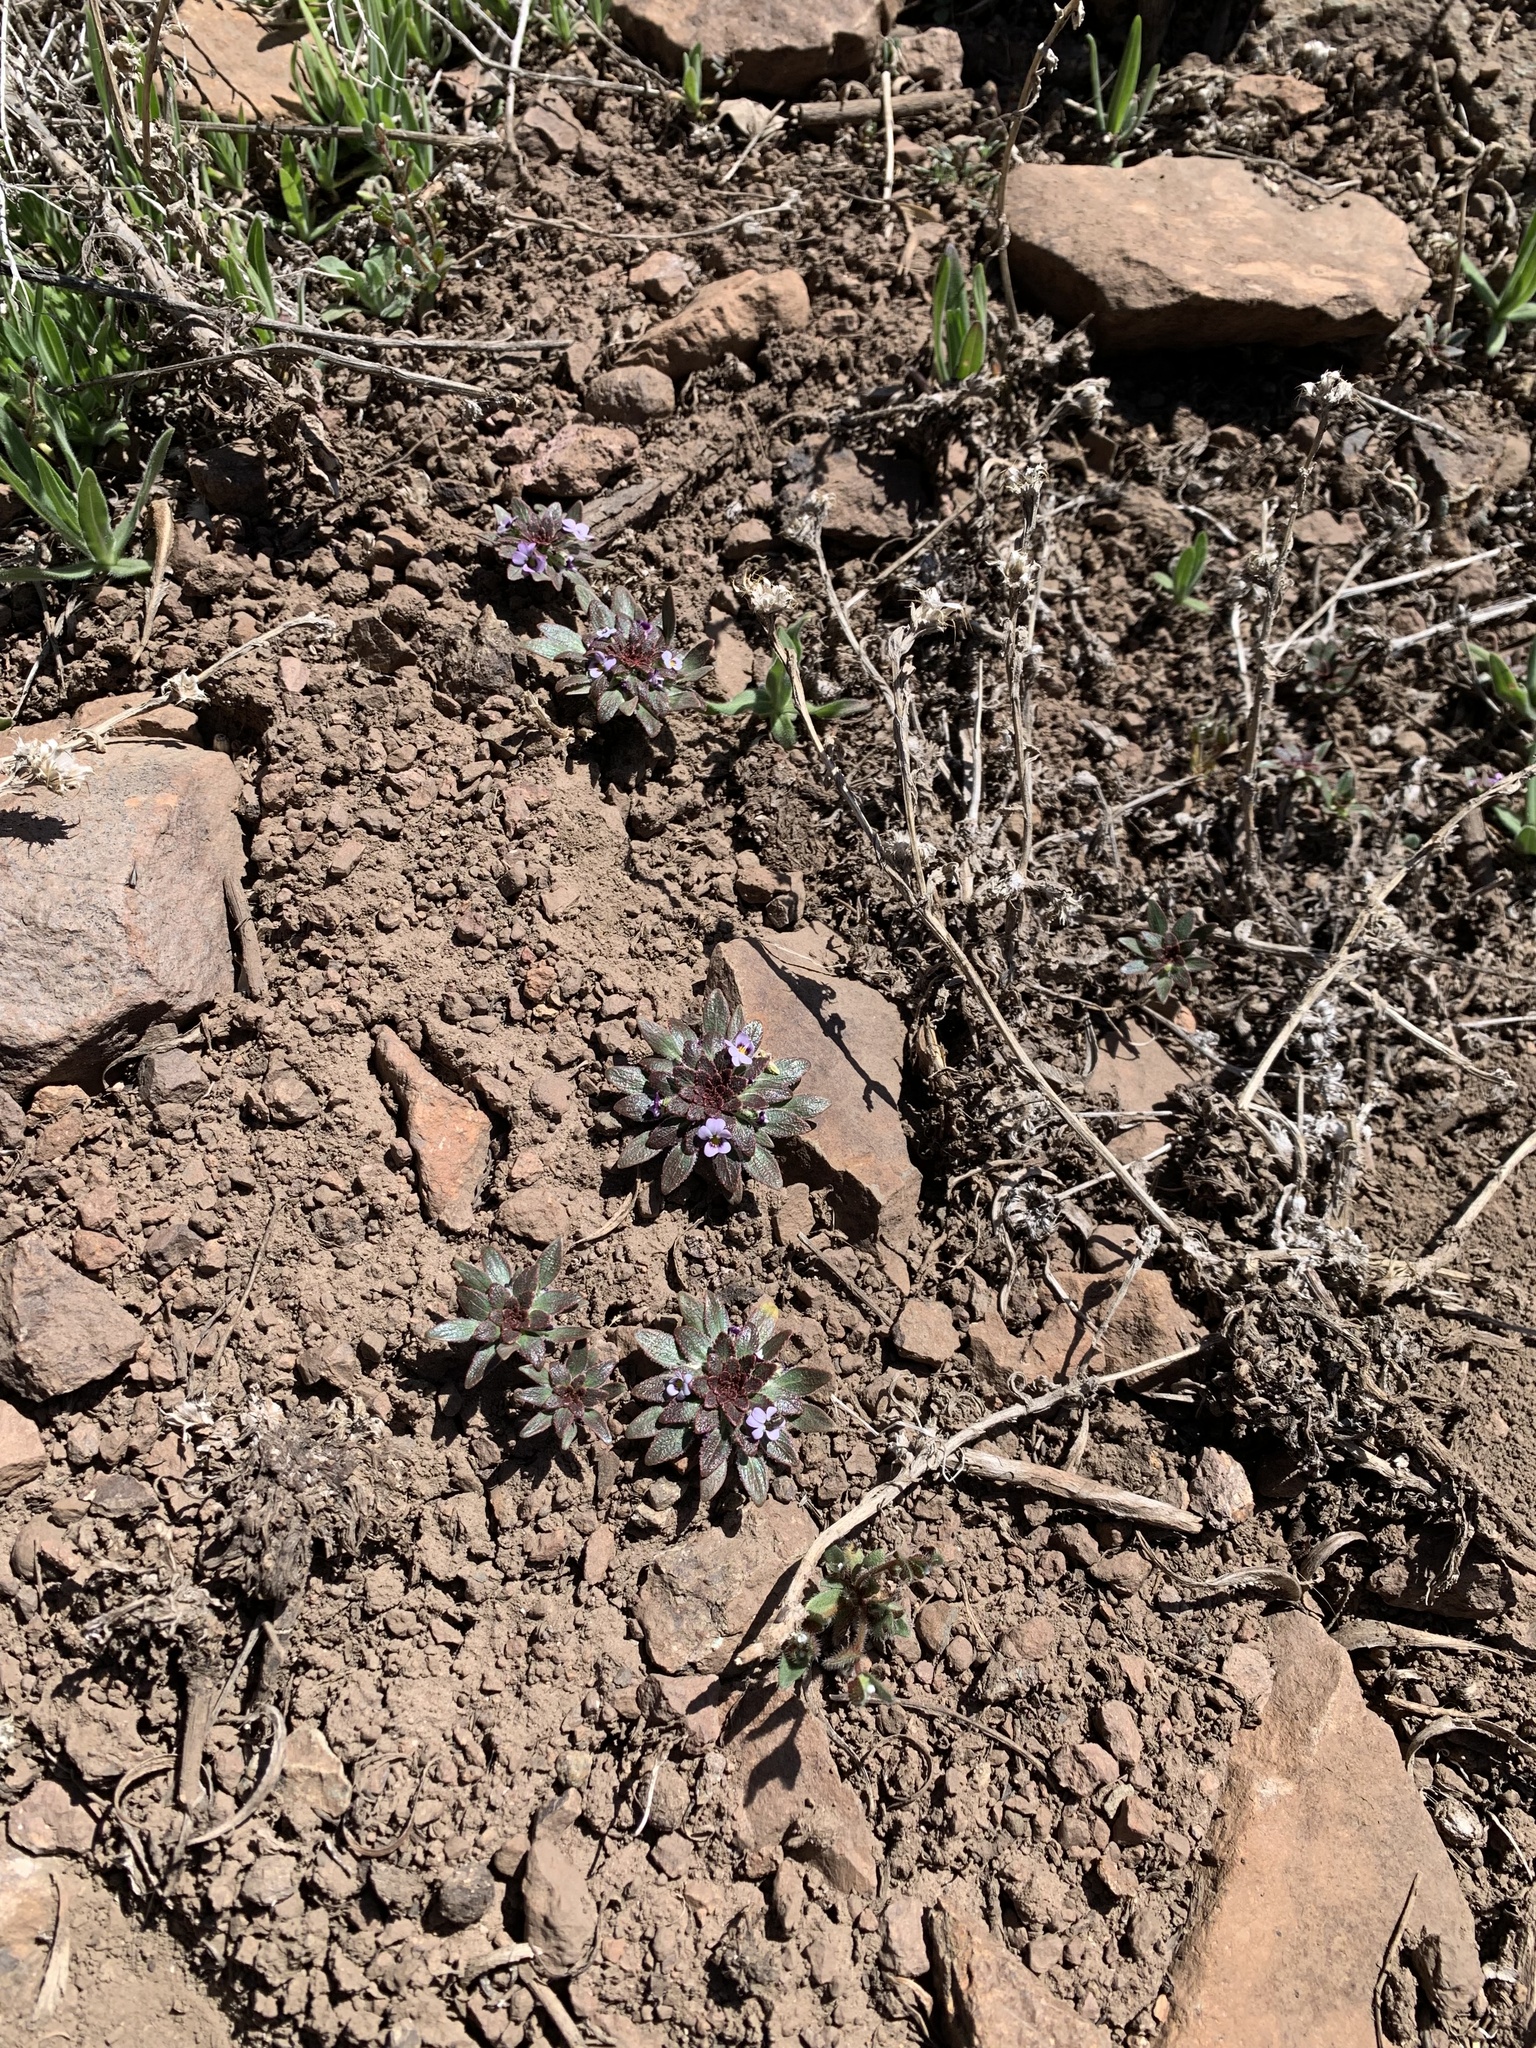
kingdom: Plantae
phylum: Tracheophyta
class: Magnoliopsida
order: Malpighiales
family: Violaceae
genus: Viola
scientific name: Viola subandina
